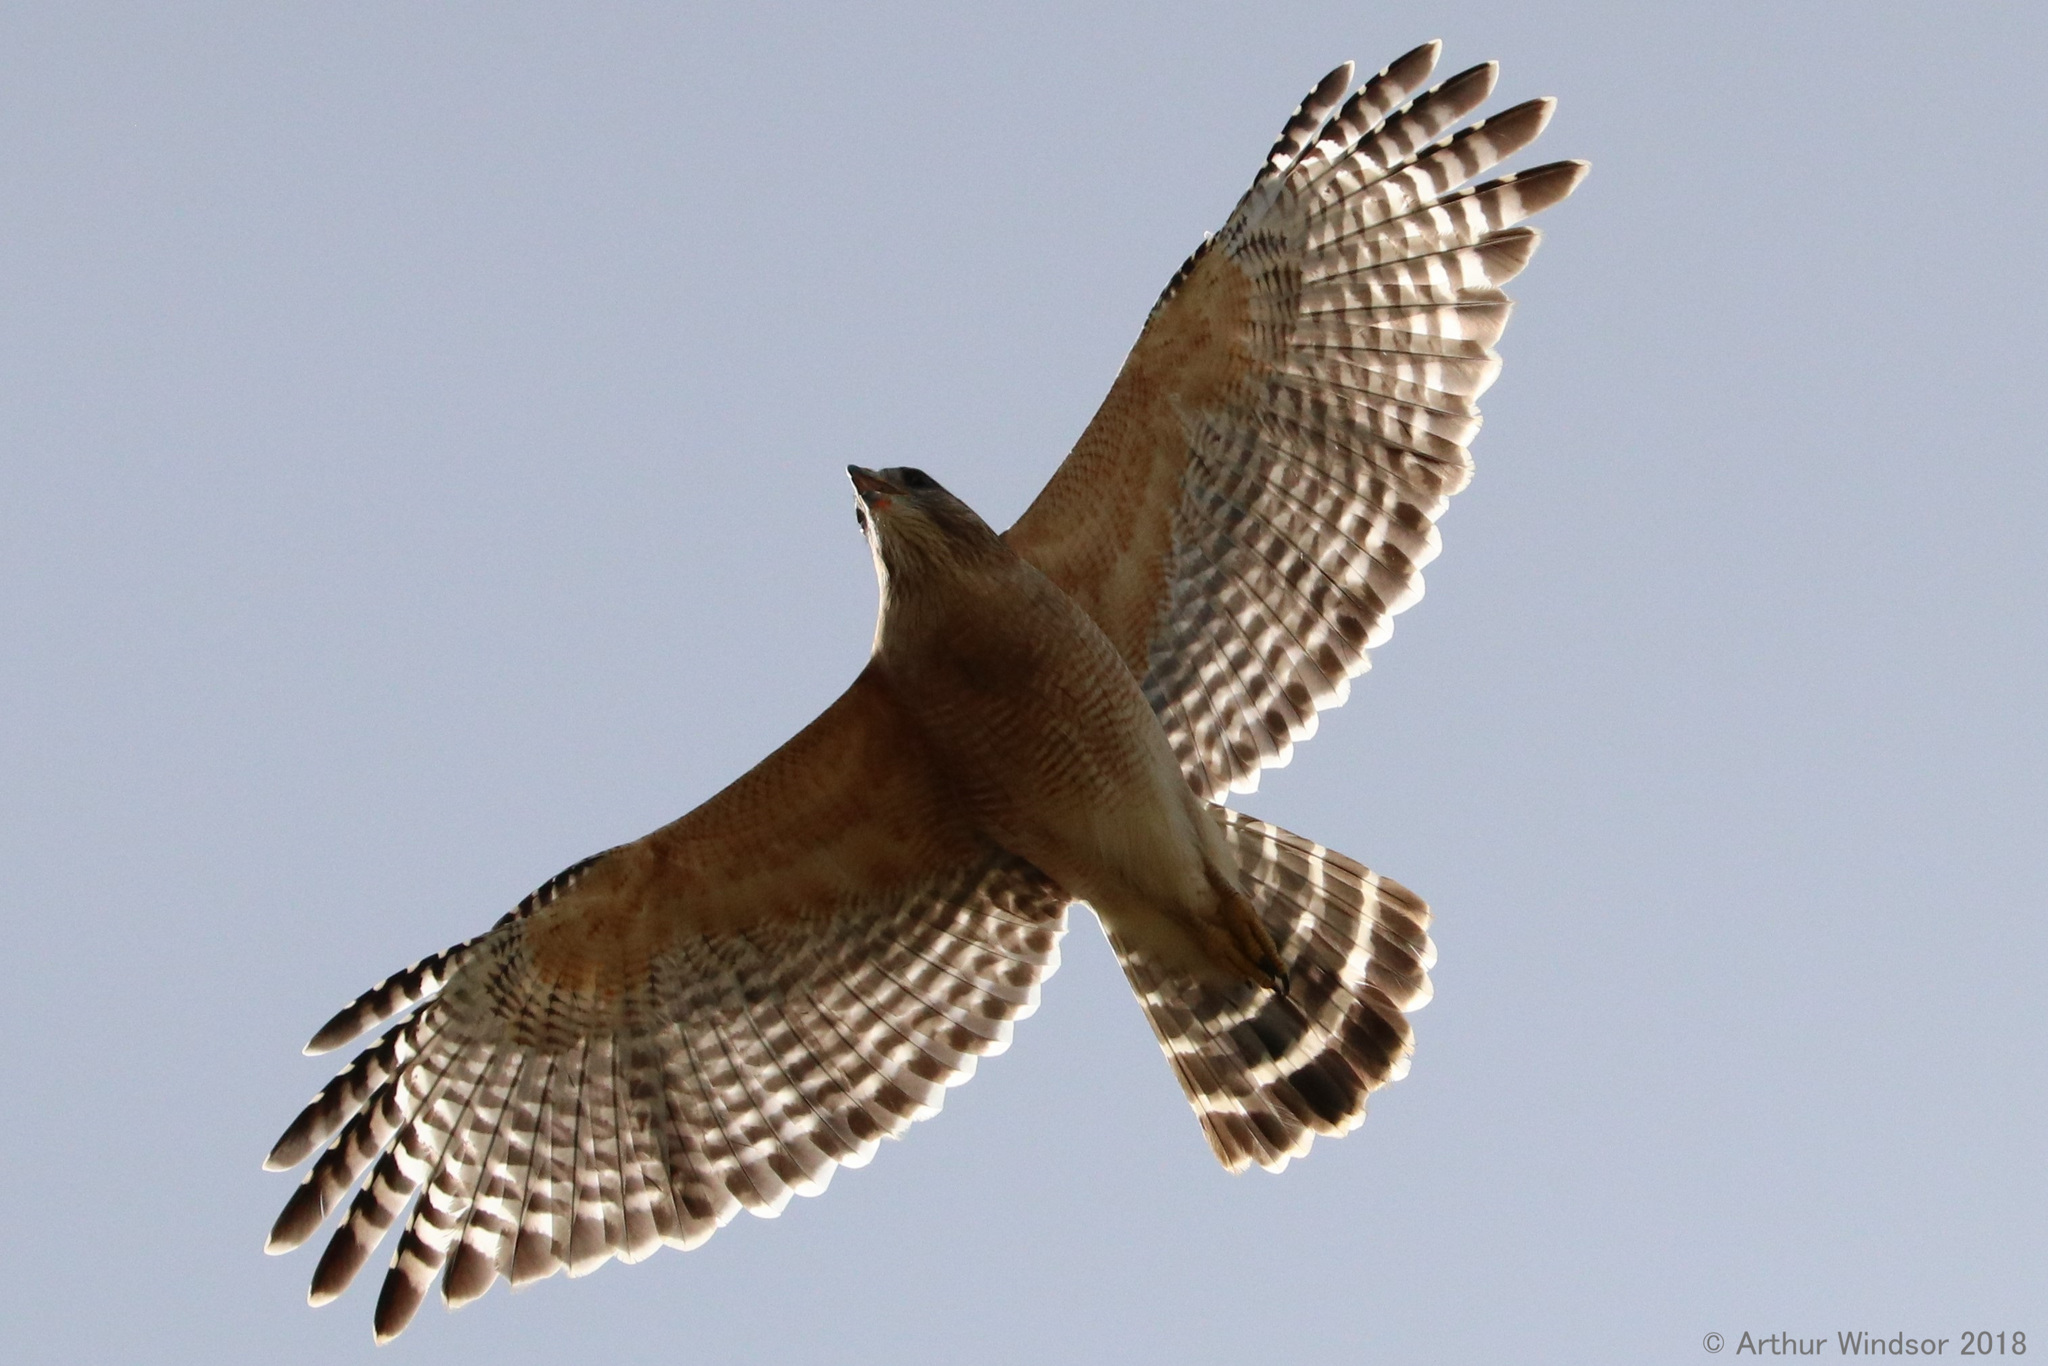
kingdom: Animalia
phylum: Chordata
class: Aves
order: Accipitriformes
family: Accipitridae
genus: Buteo
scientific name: Buteo lineatus
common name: Red-shouldered hawk
